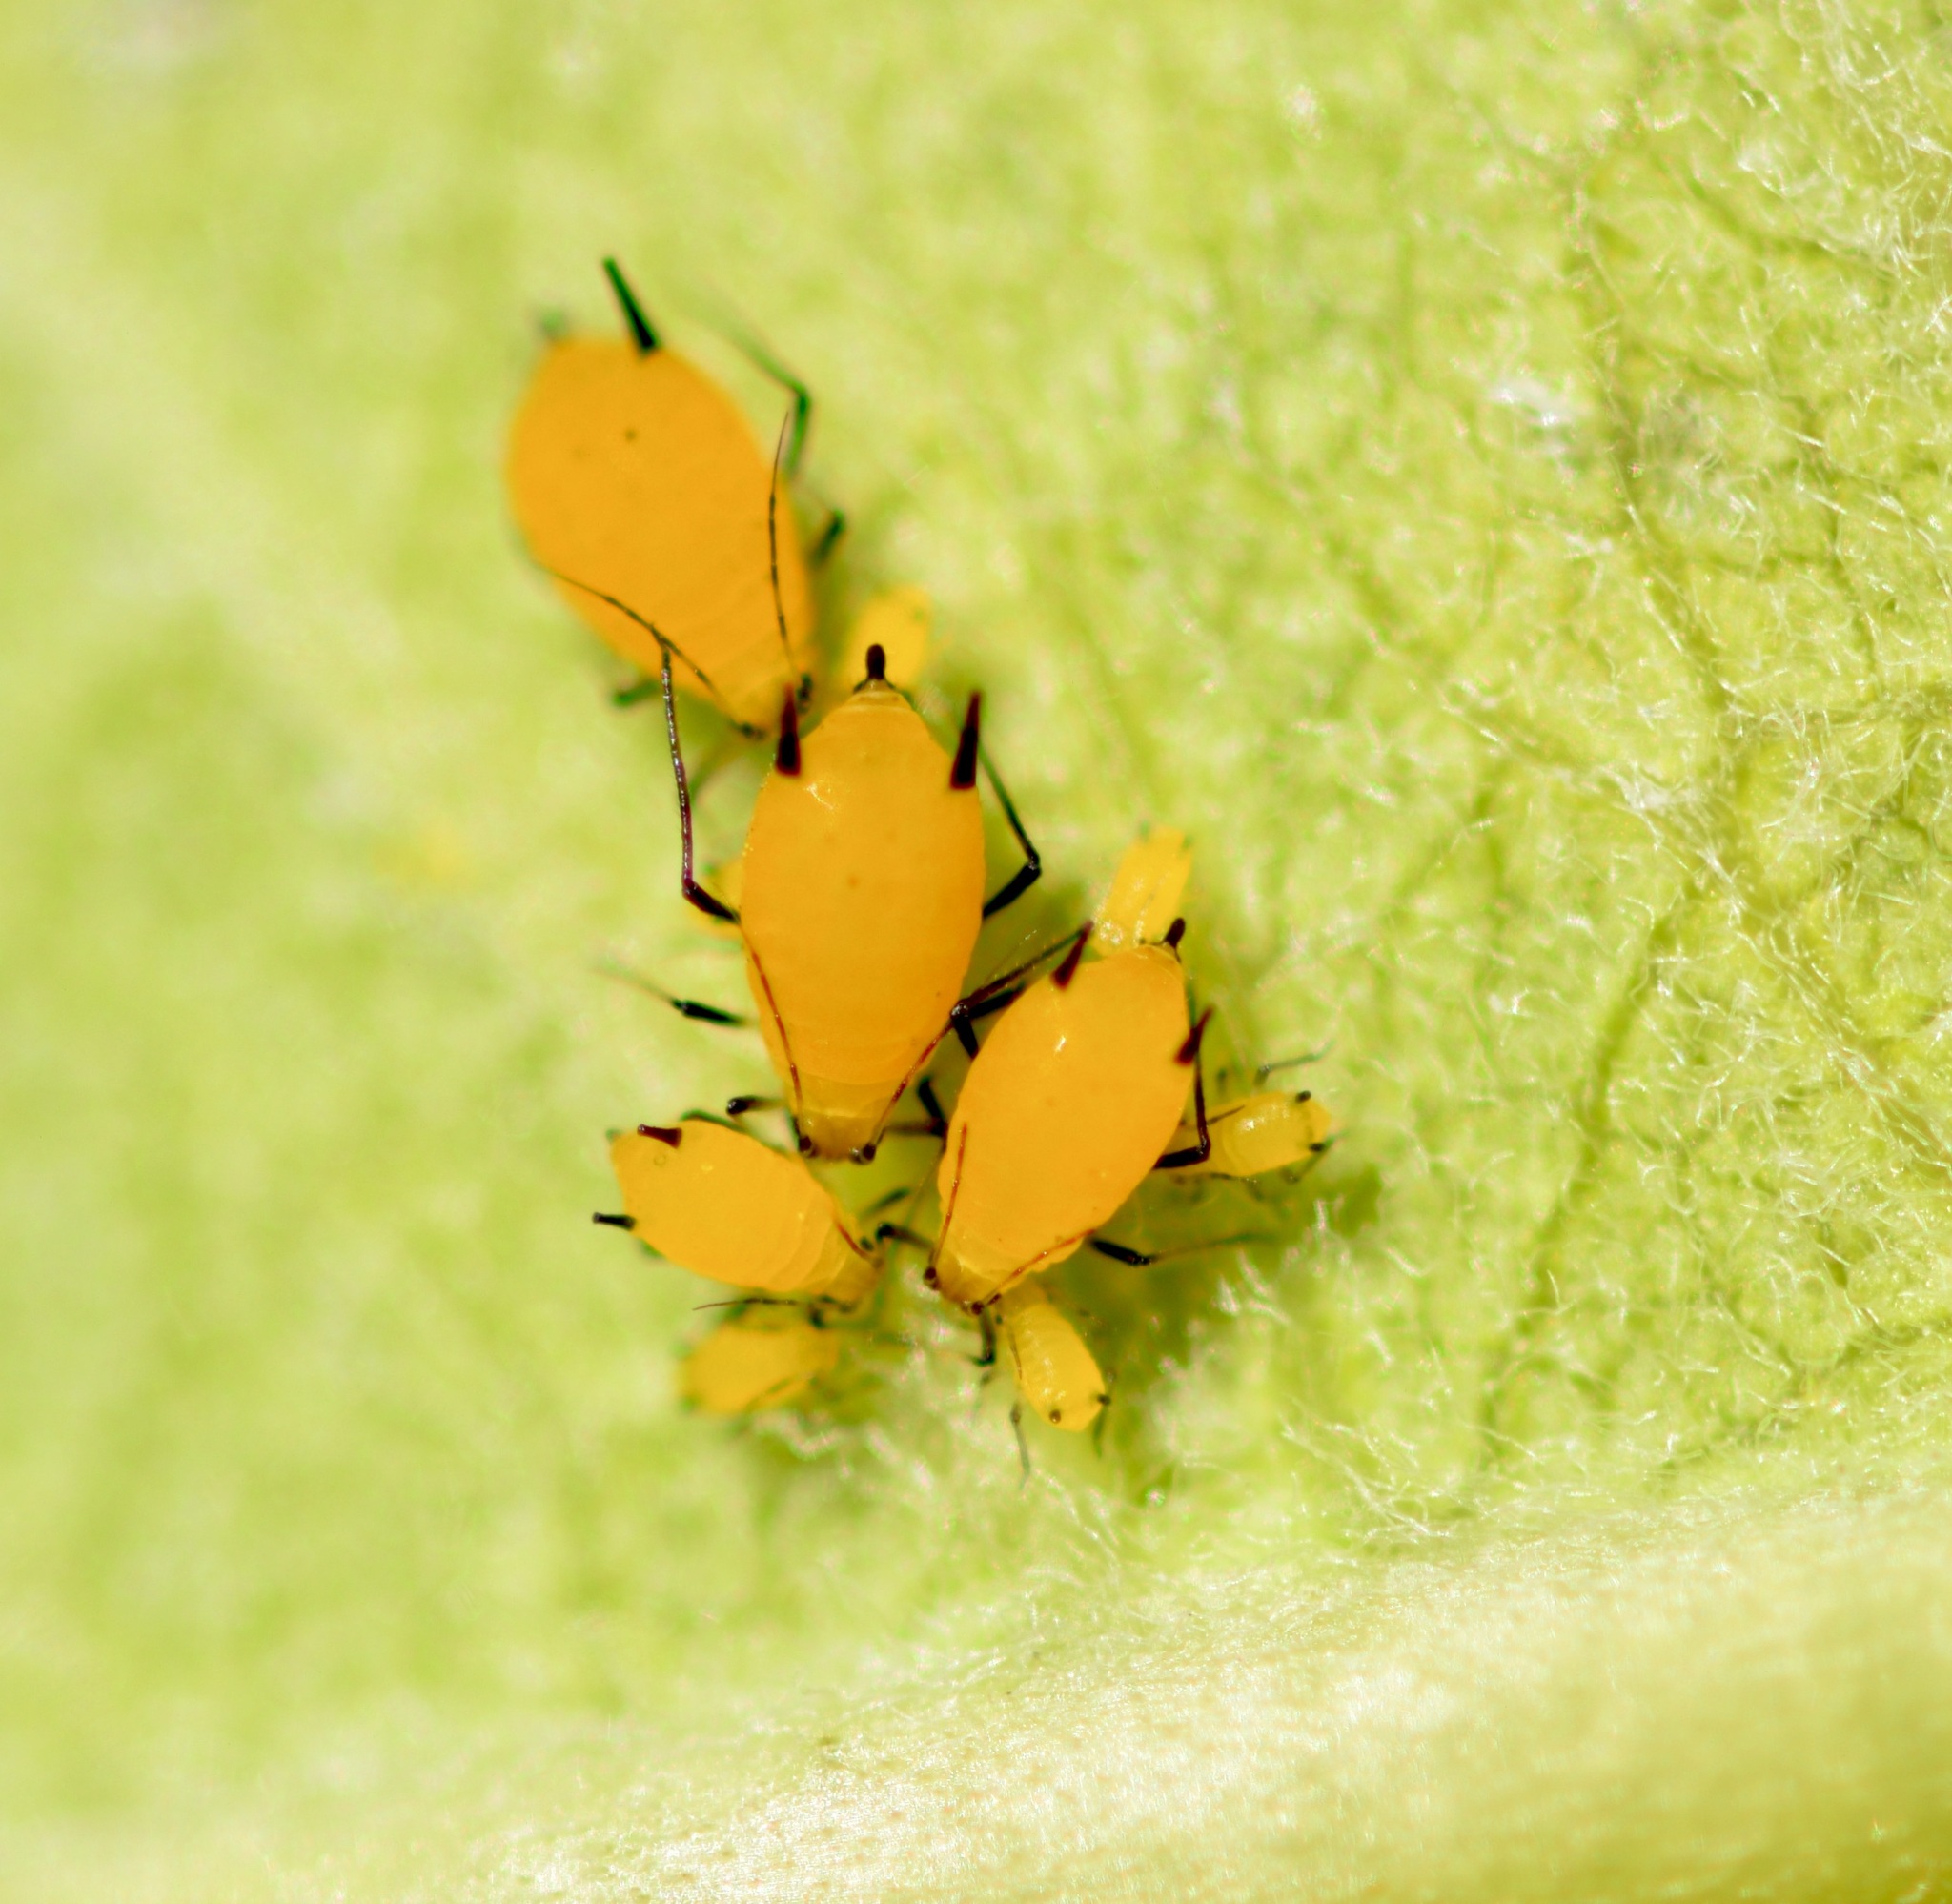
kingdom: Animalia
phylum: Arthropoda
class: Insecta
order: Hemiptera
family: Aphididae
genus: Aphis
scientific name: Aphis nerii
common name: Oleander aphid
